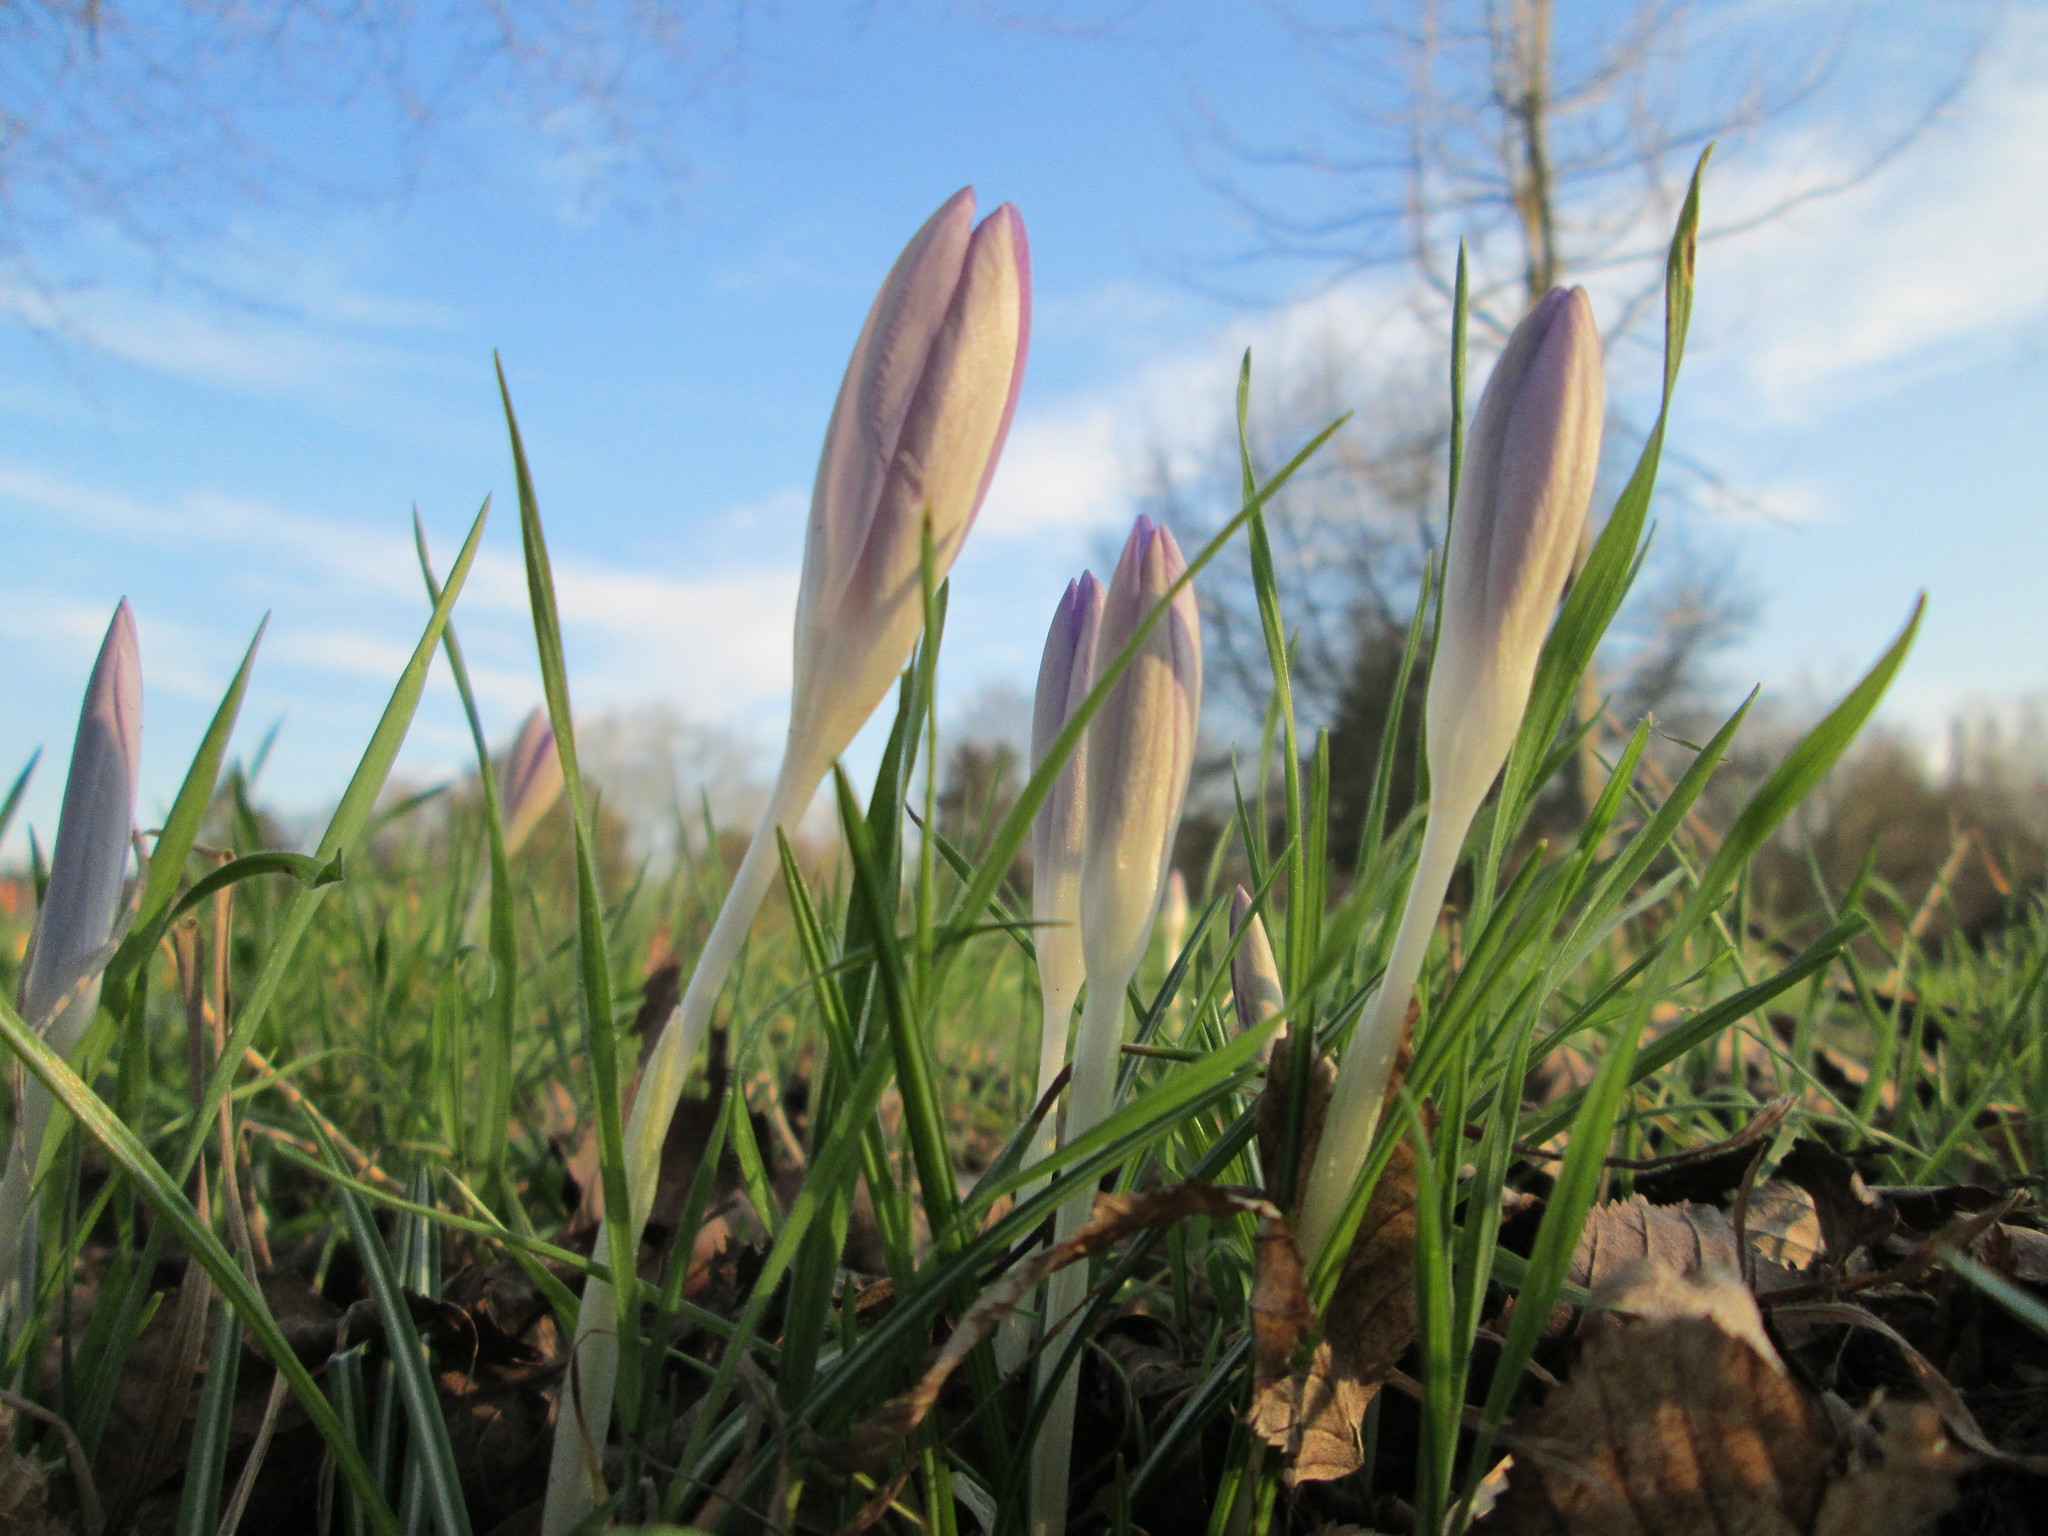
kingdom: Plantae
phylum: Tracheophyta
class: Liliopsida
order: Asparagales
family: Iridaceae
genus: Crocus
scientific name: Crocus tommasinianus
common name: Early crocus
